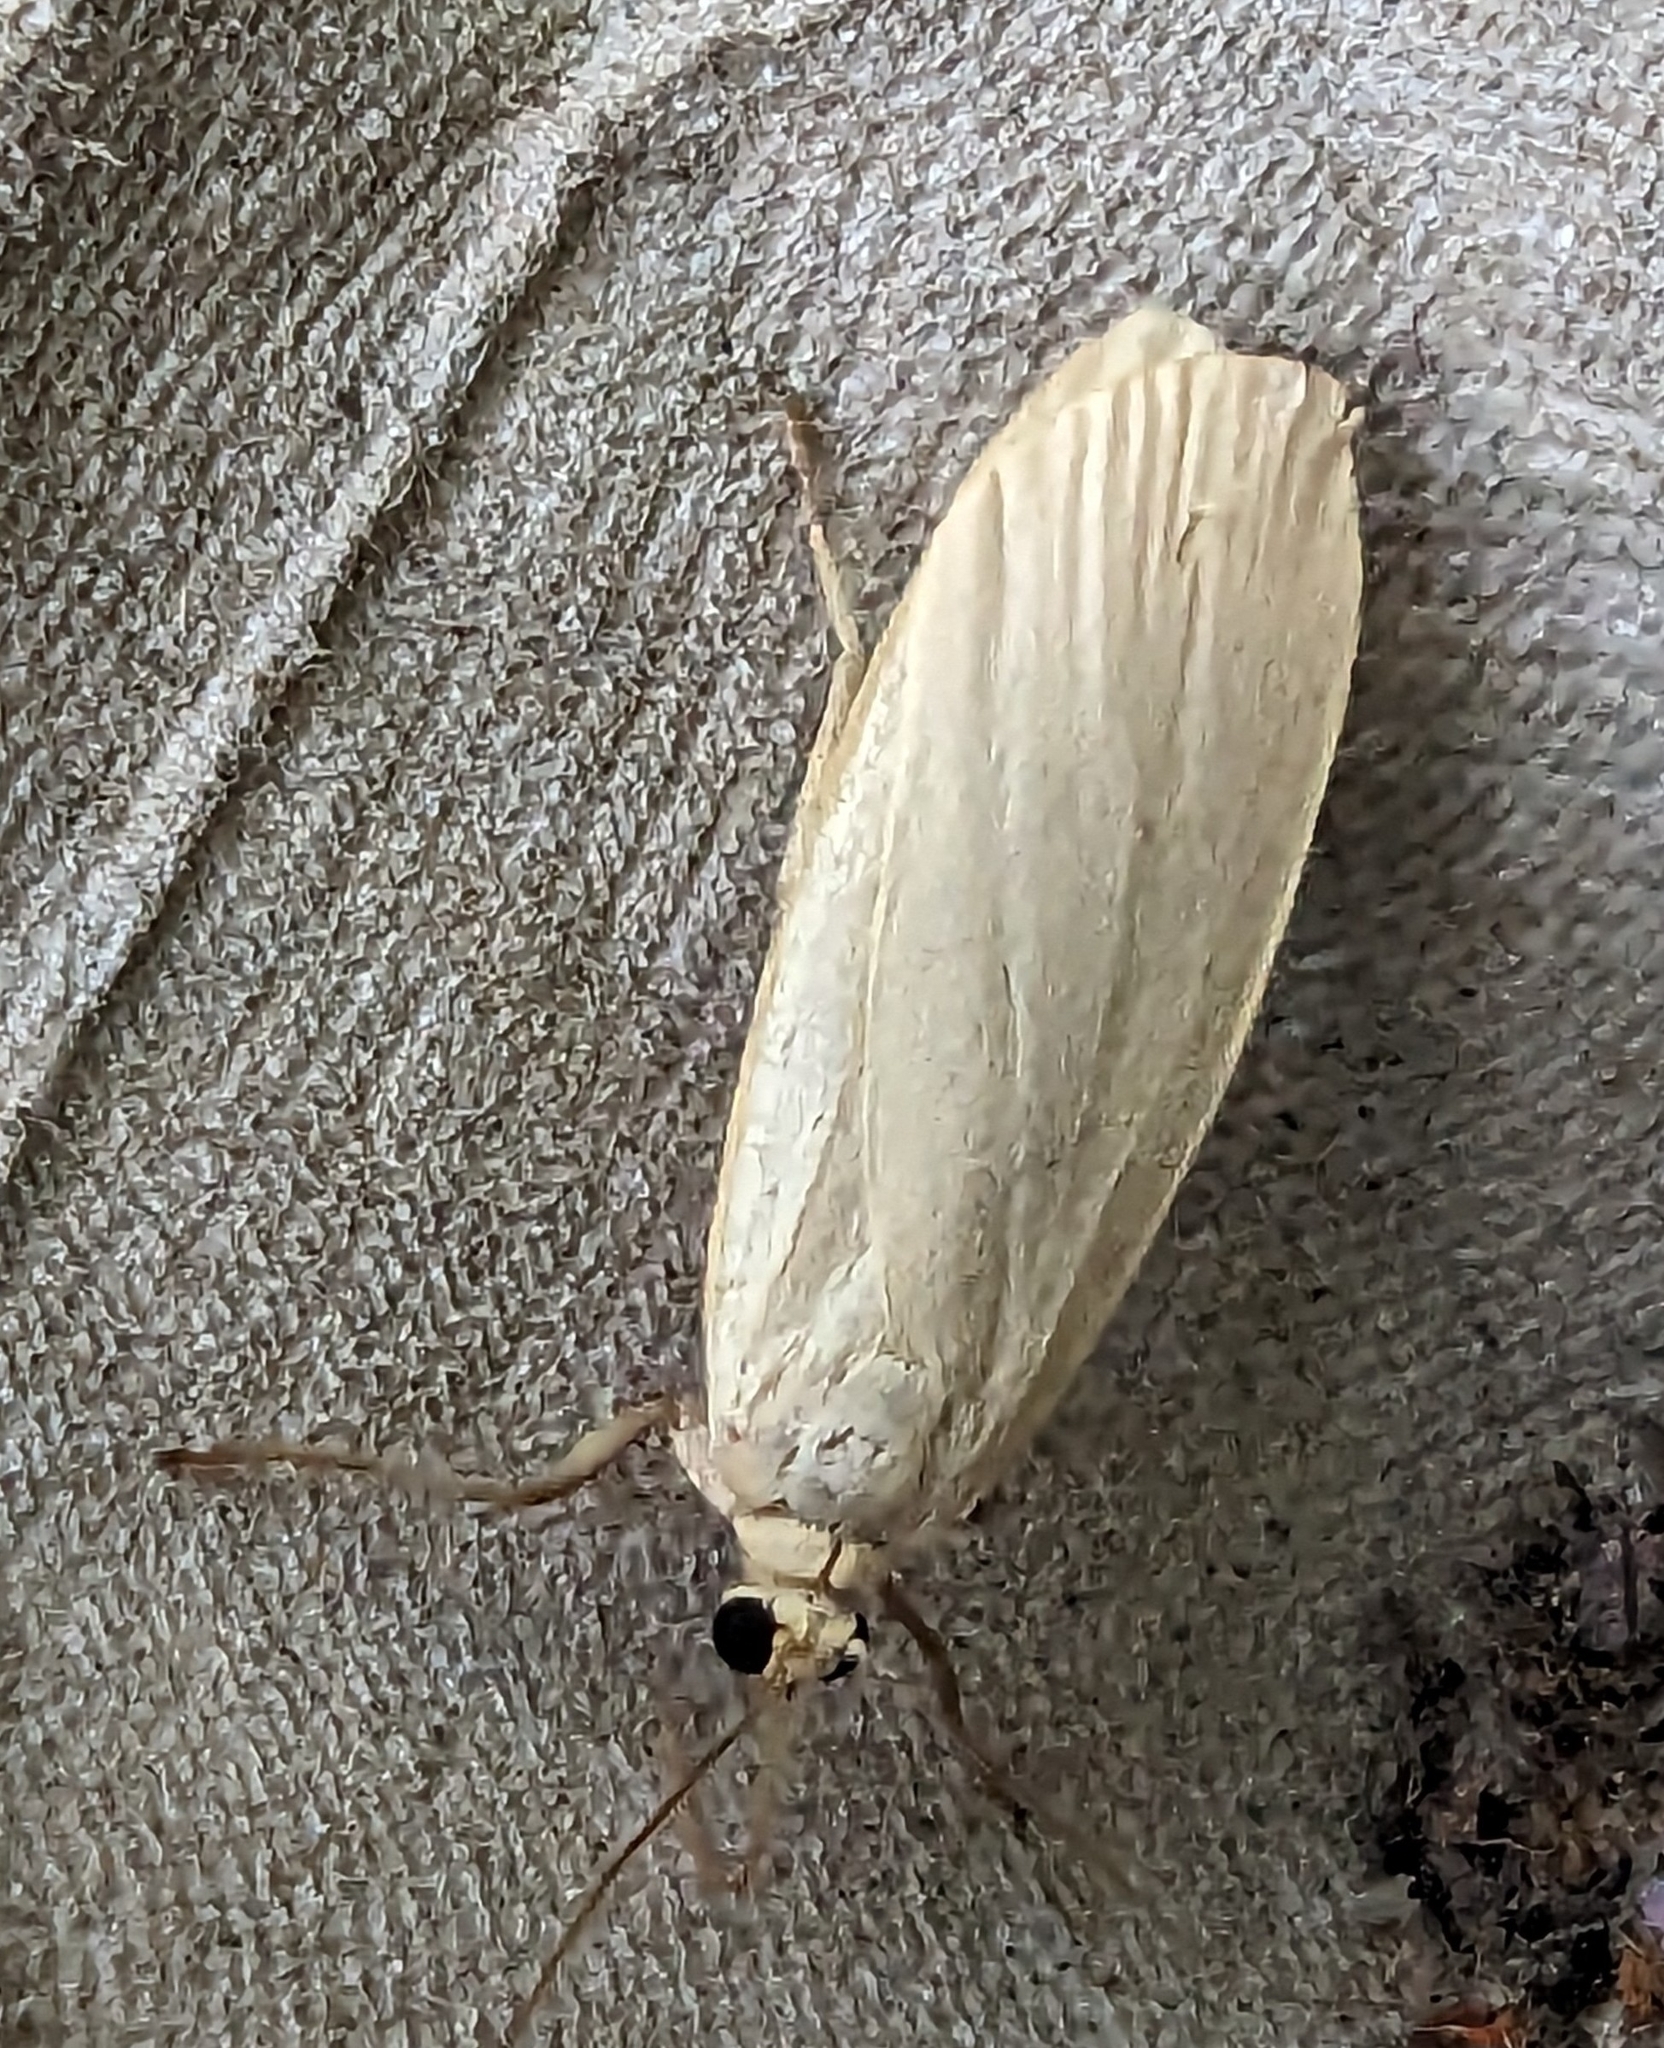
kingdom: Animalia
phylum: Arthropoda
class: Insecta
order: Lepidoptera
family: Erebidae
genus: Collita
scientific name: Collita griseola
